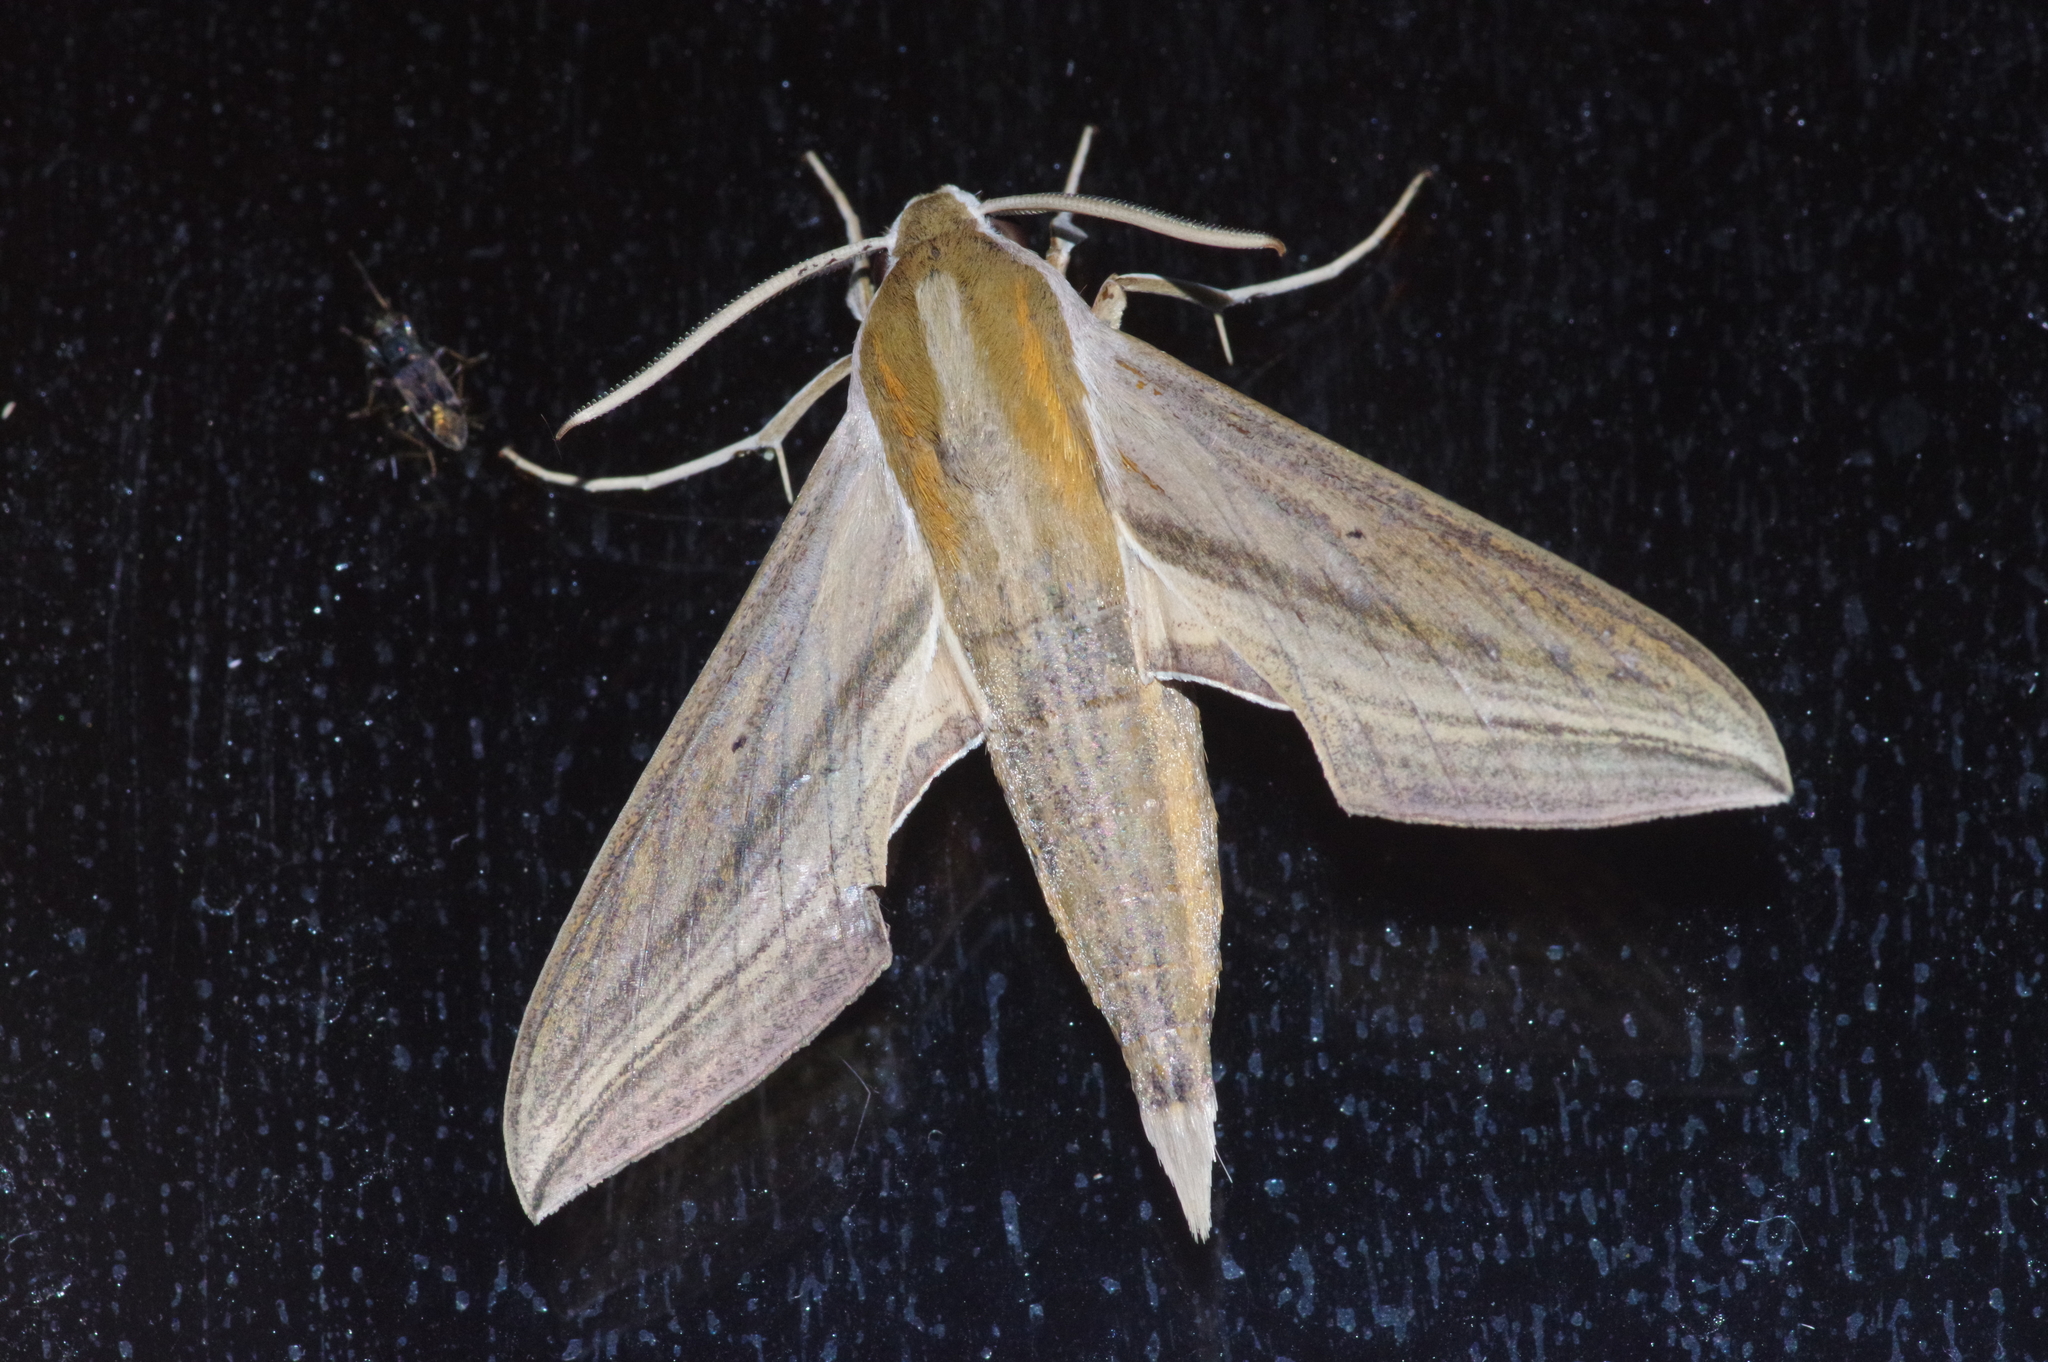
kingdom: Animalia
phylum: Arthropoda
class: Insecta
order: Lepidoptera
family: Sphingidae
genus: Theretra
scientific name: Theretra japonica
